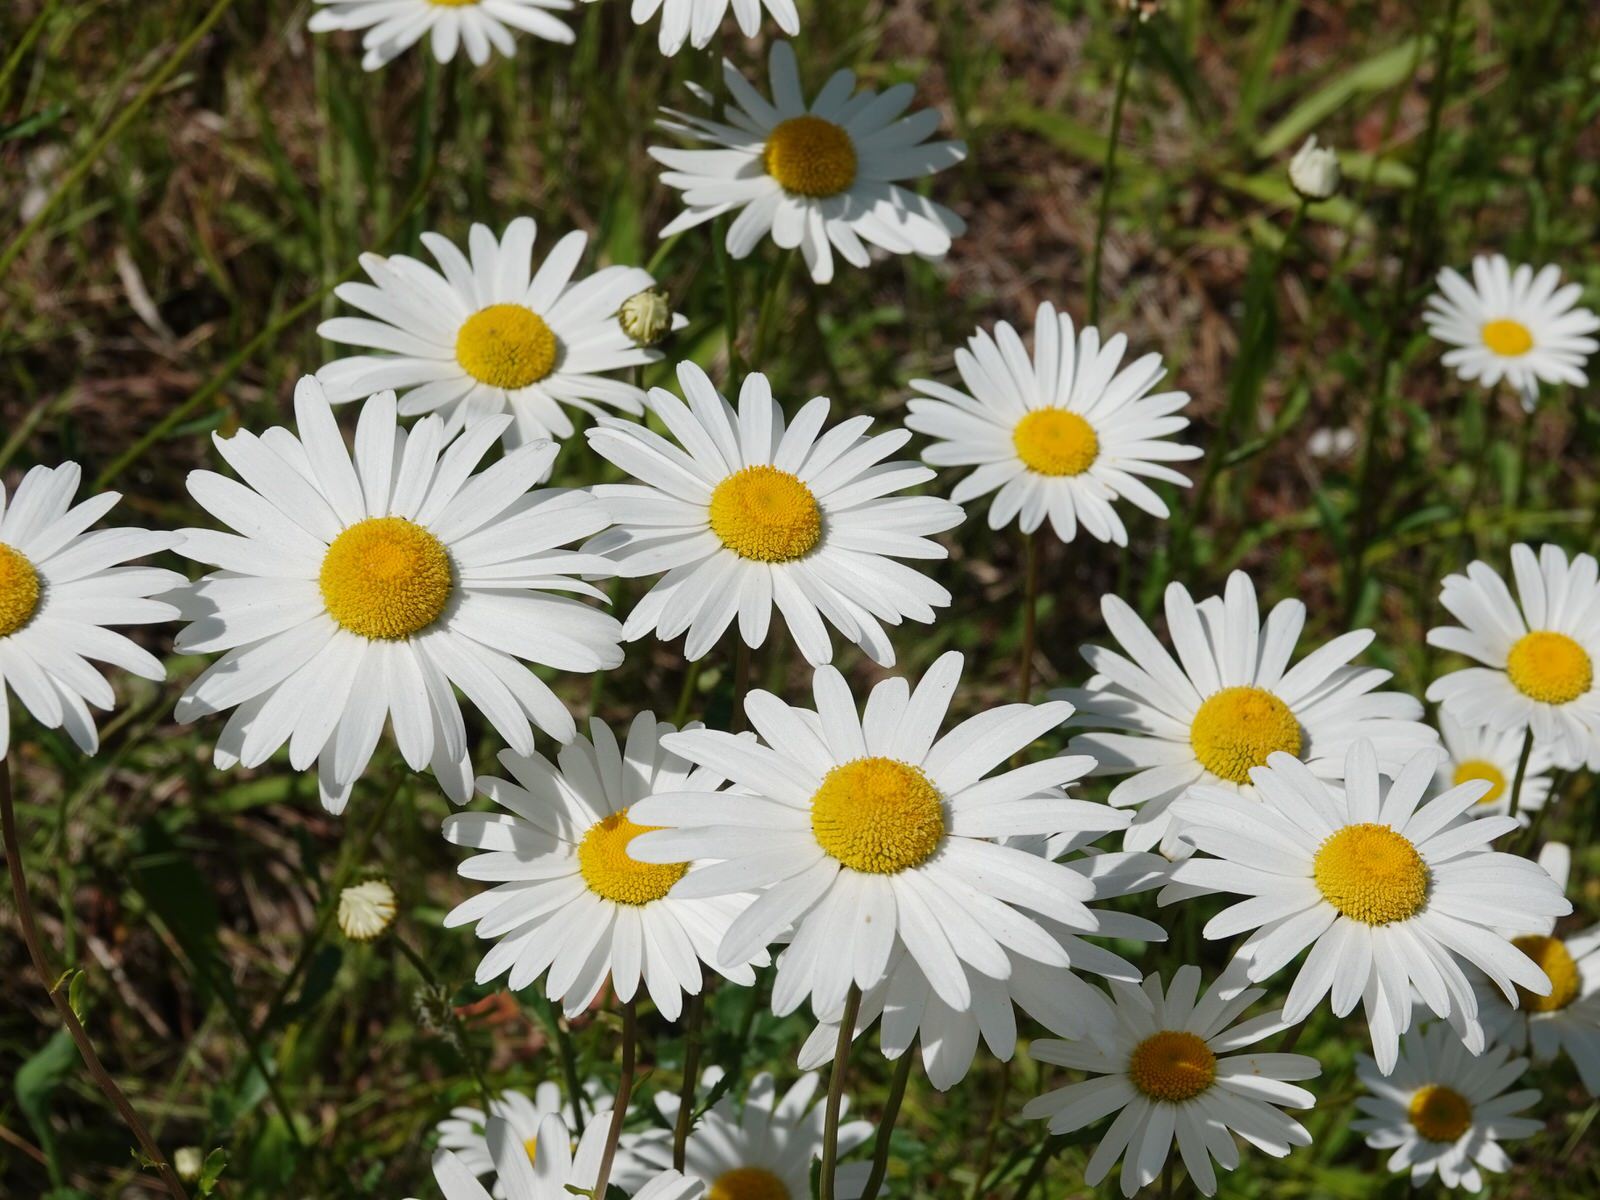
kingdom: Plantae
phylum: Tracheophyta
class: Magnoliopsida
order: Asterales
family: Asteraceae
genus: Leucanthemum
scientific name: Leucanthemum vulgare
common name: Oxeye daisy
